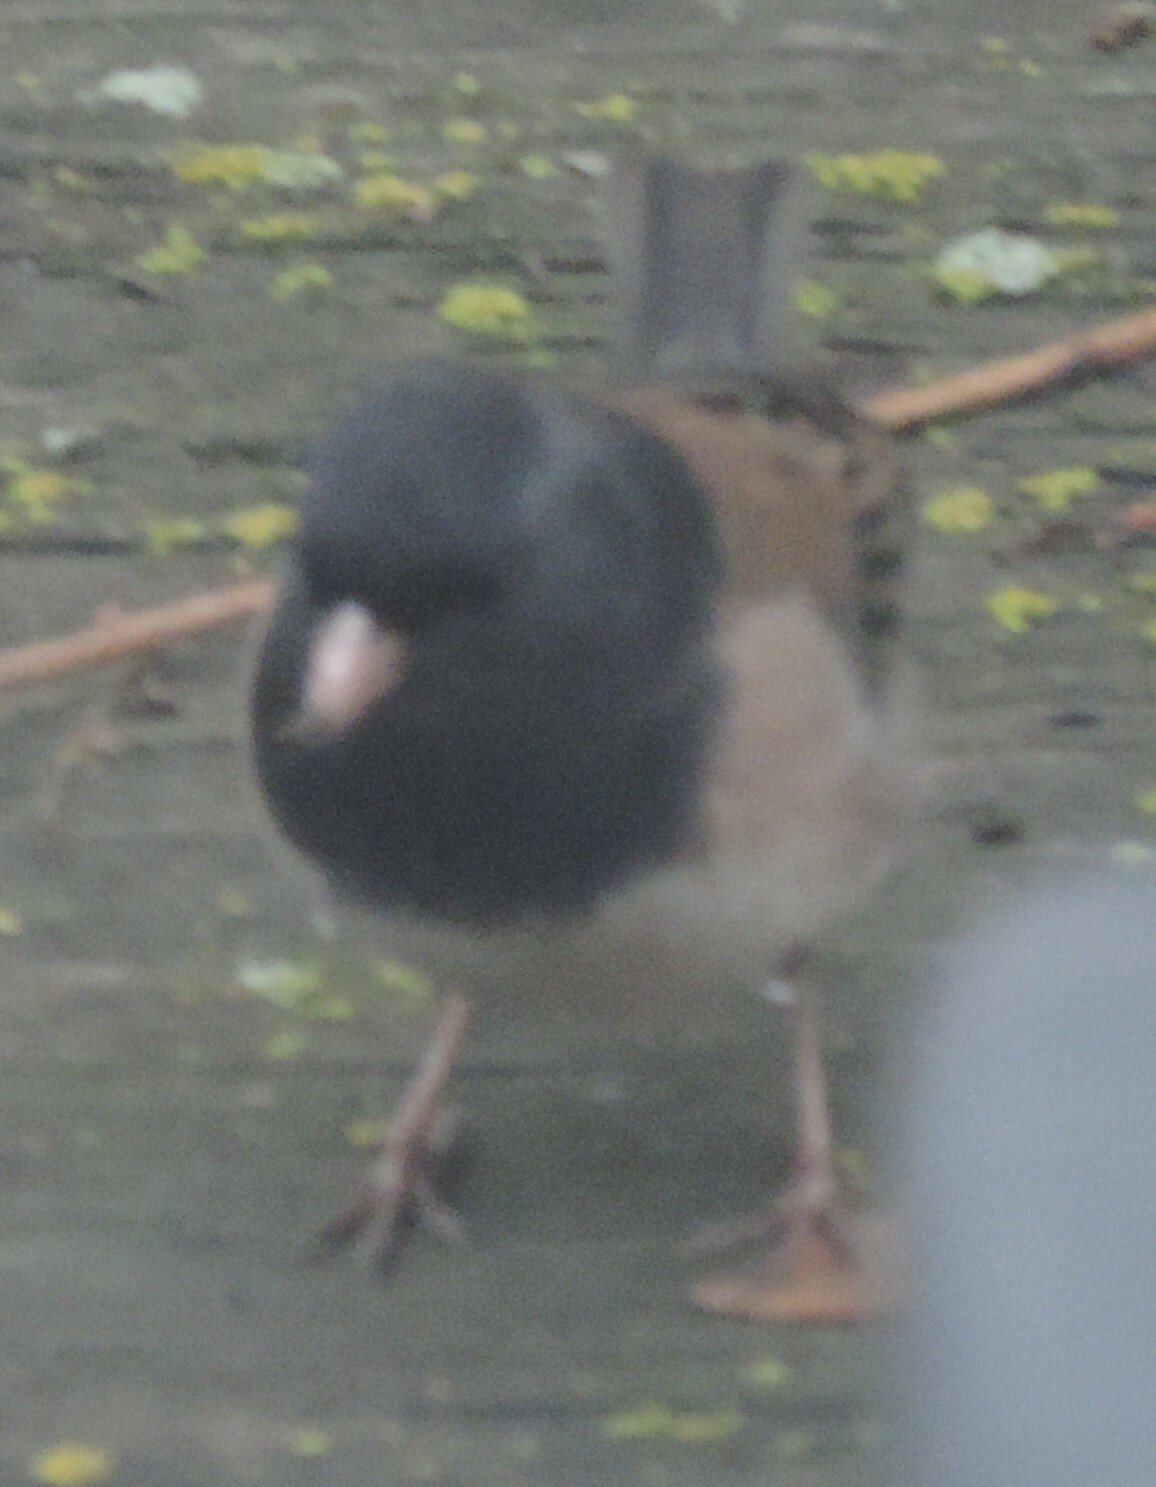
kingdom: Animalia
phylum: Chordata
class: Aves
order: Passeriformes
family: Passerellidae
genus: Junco
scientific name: Junco hyemalis
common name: Dark-eyed junco
